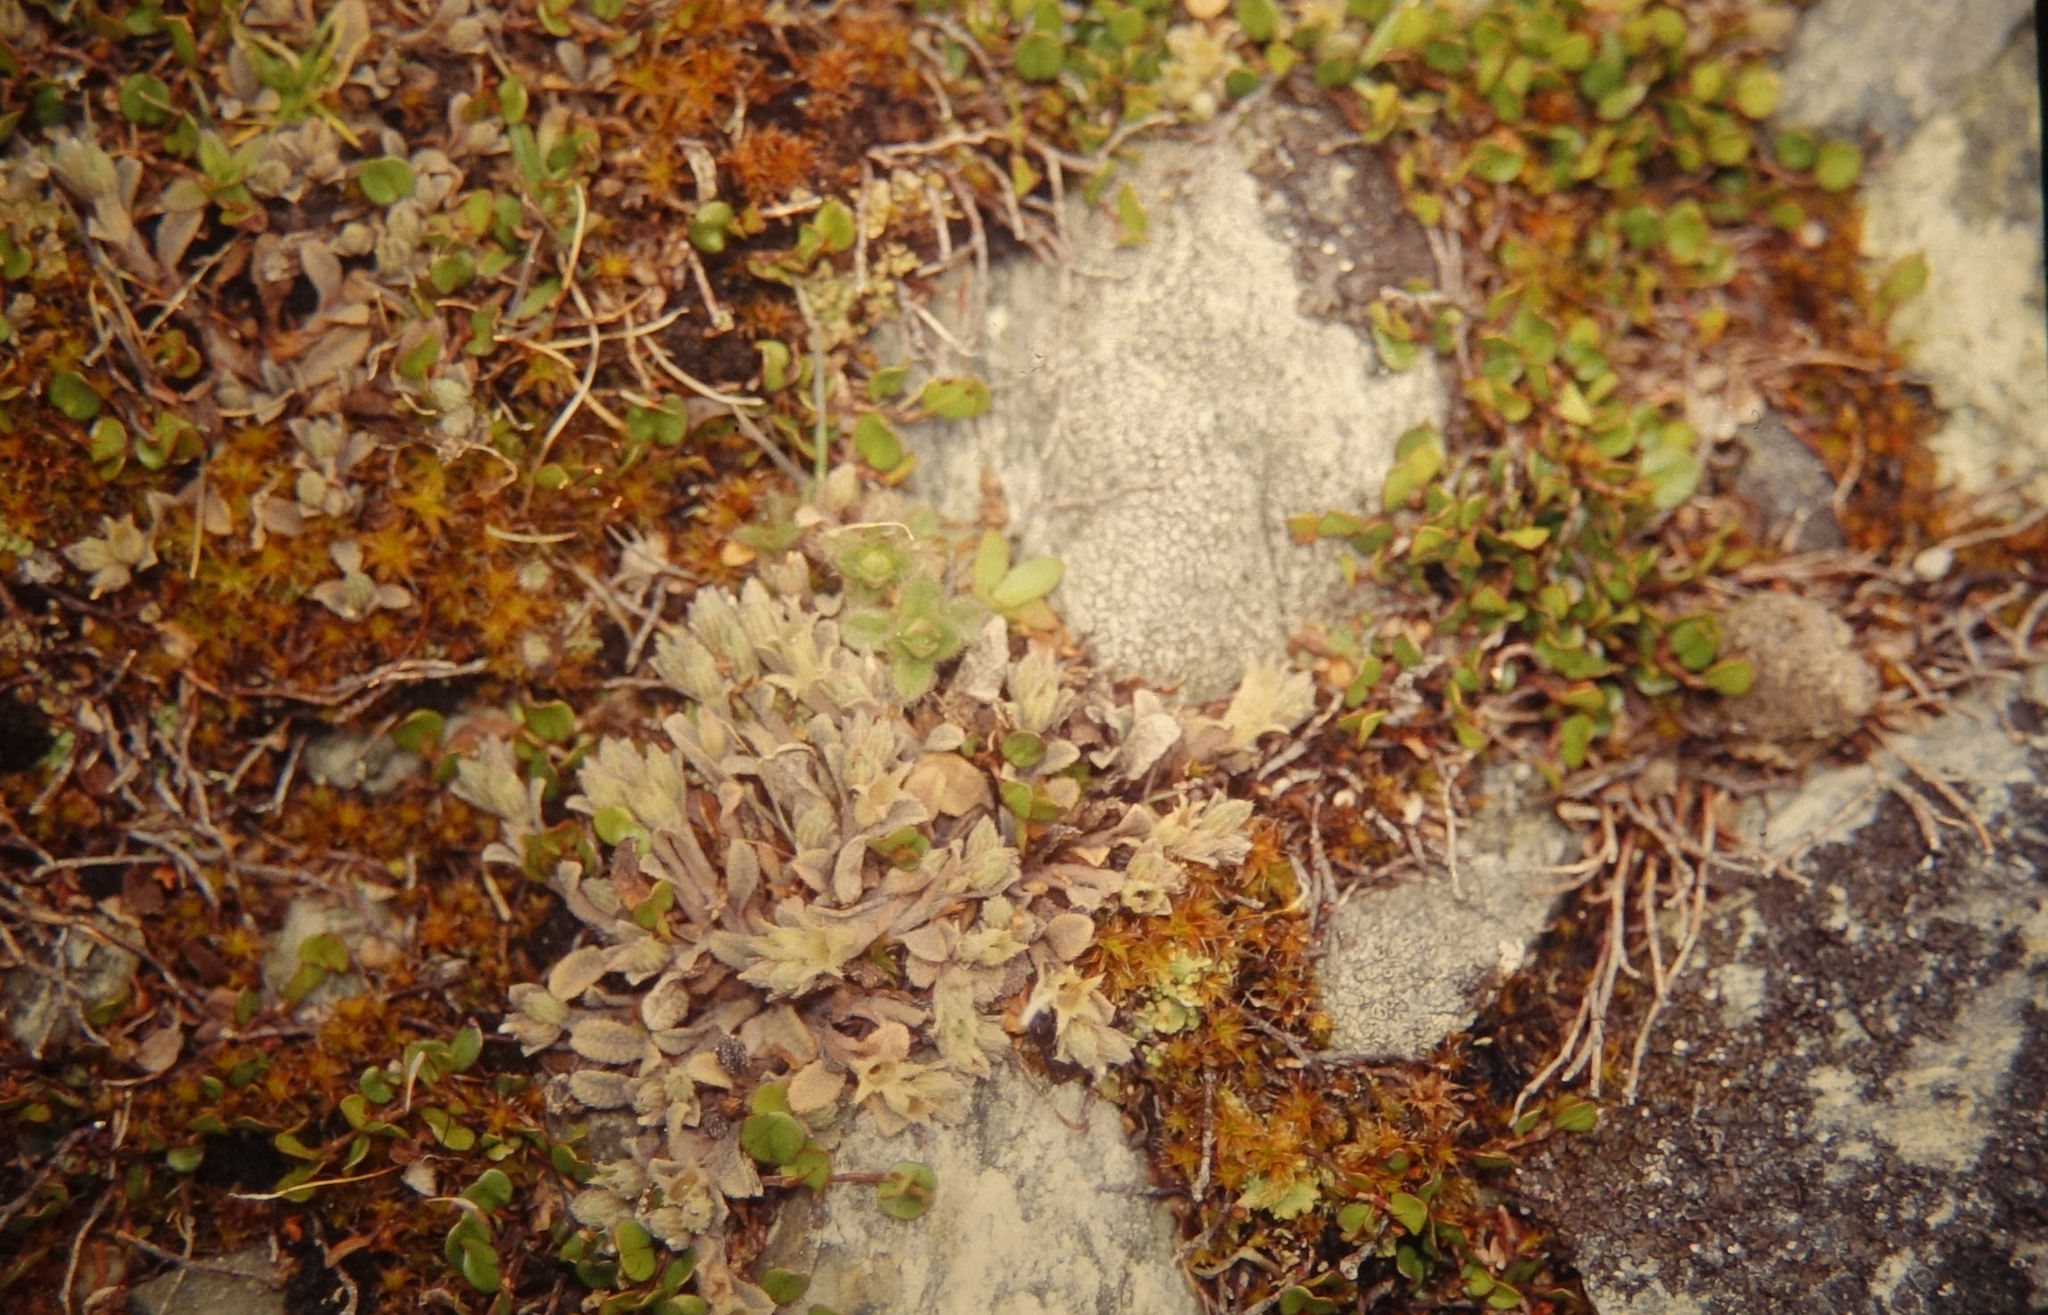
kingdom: Plantae
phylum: Tracheophyta
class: Magnoliopsida
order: Boraginales
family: Boraginaceae
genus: Myosotis
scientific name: Myosotis glauca
